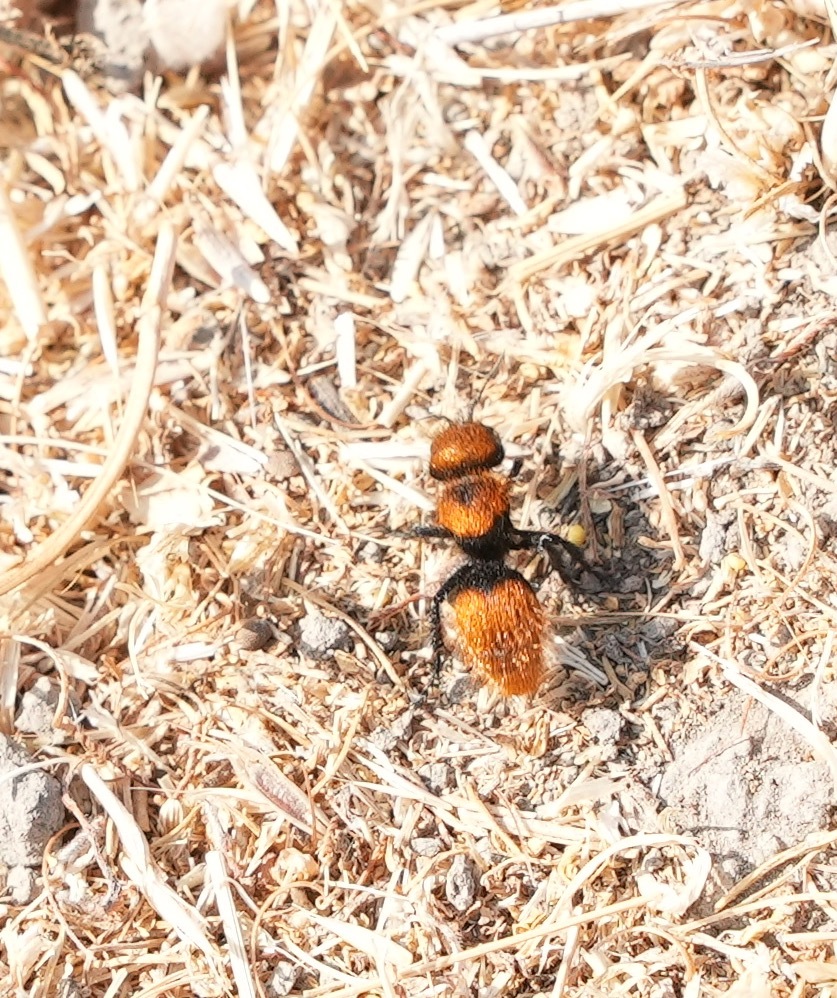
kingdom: Animalia
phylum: Arthropoda
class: Insecta
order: Hymenoptera
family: Mutillidae
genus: Dasymutilla
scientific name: Dasymutilla
